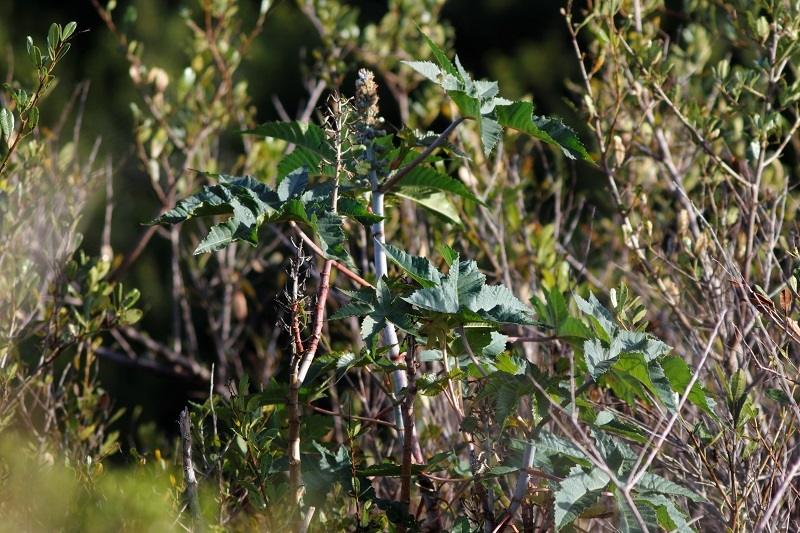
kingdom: Plantae
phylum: Tracheophyta
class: Magnoliopsida
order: Malpighiales
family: Euphorbiaceae
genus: Ricinus
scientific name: Ricinus communis
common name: Castor-oil-plant
